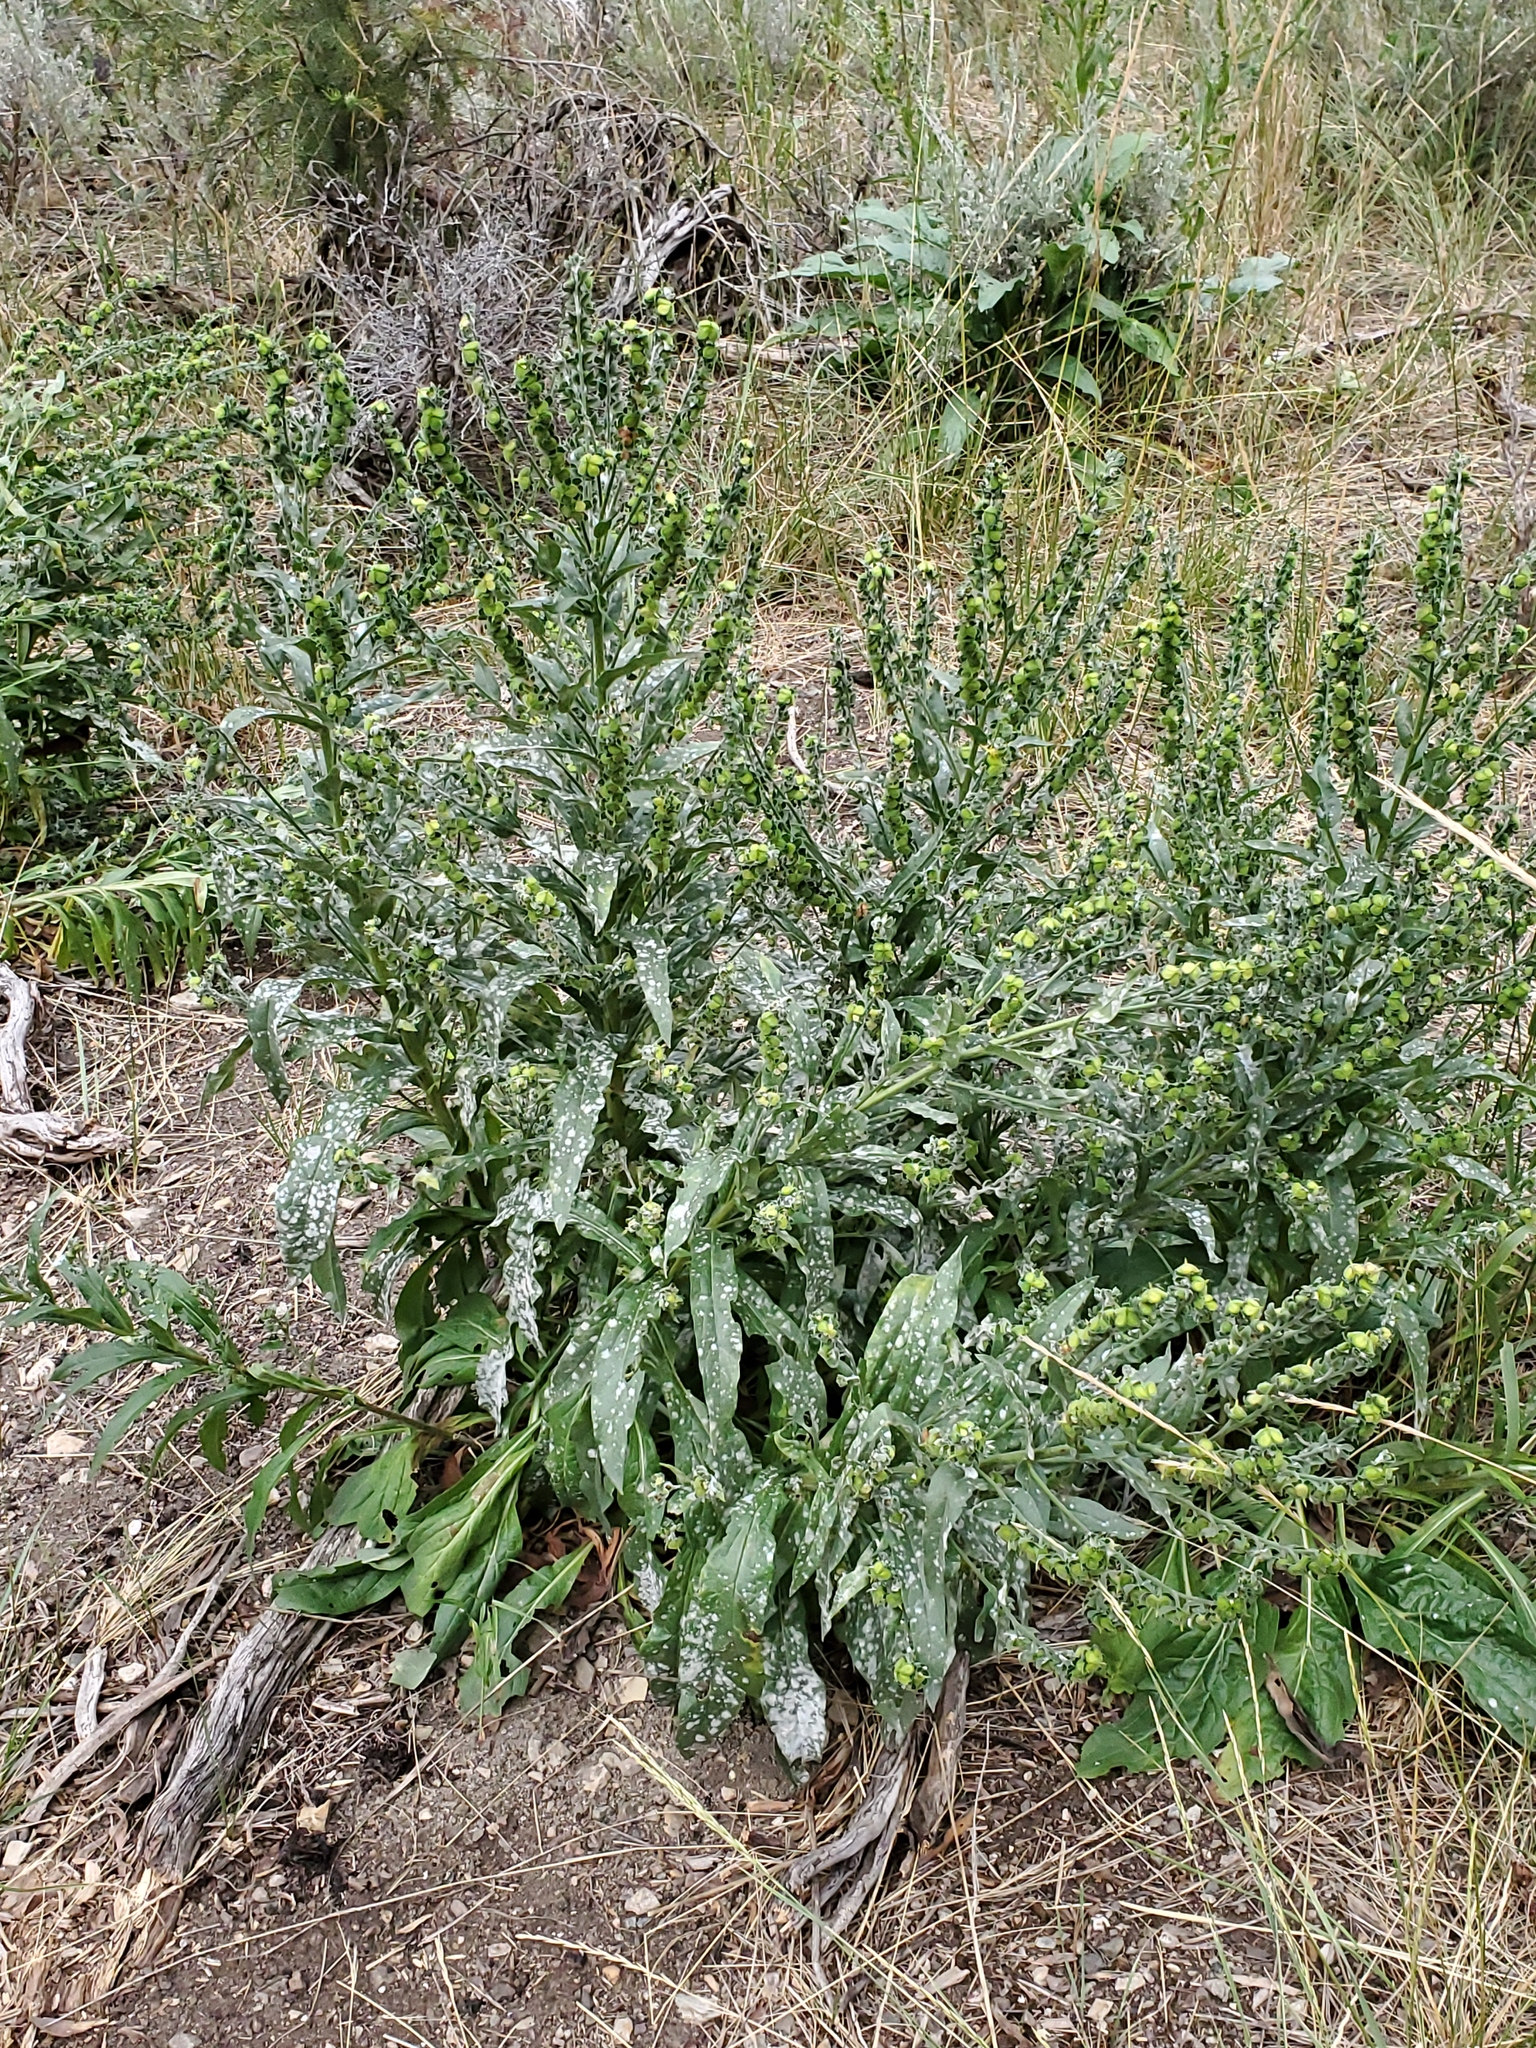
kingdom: Plantae
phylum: Tracheophyta
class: Magnoliopsida
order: Boraginales
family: Boraginaceae
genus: Cynoglossum
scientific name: Cynoglossum officinale
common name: Hound's-tongue
